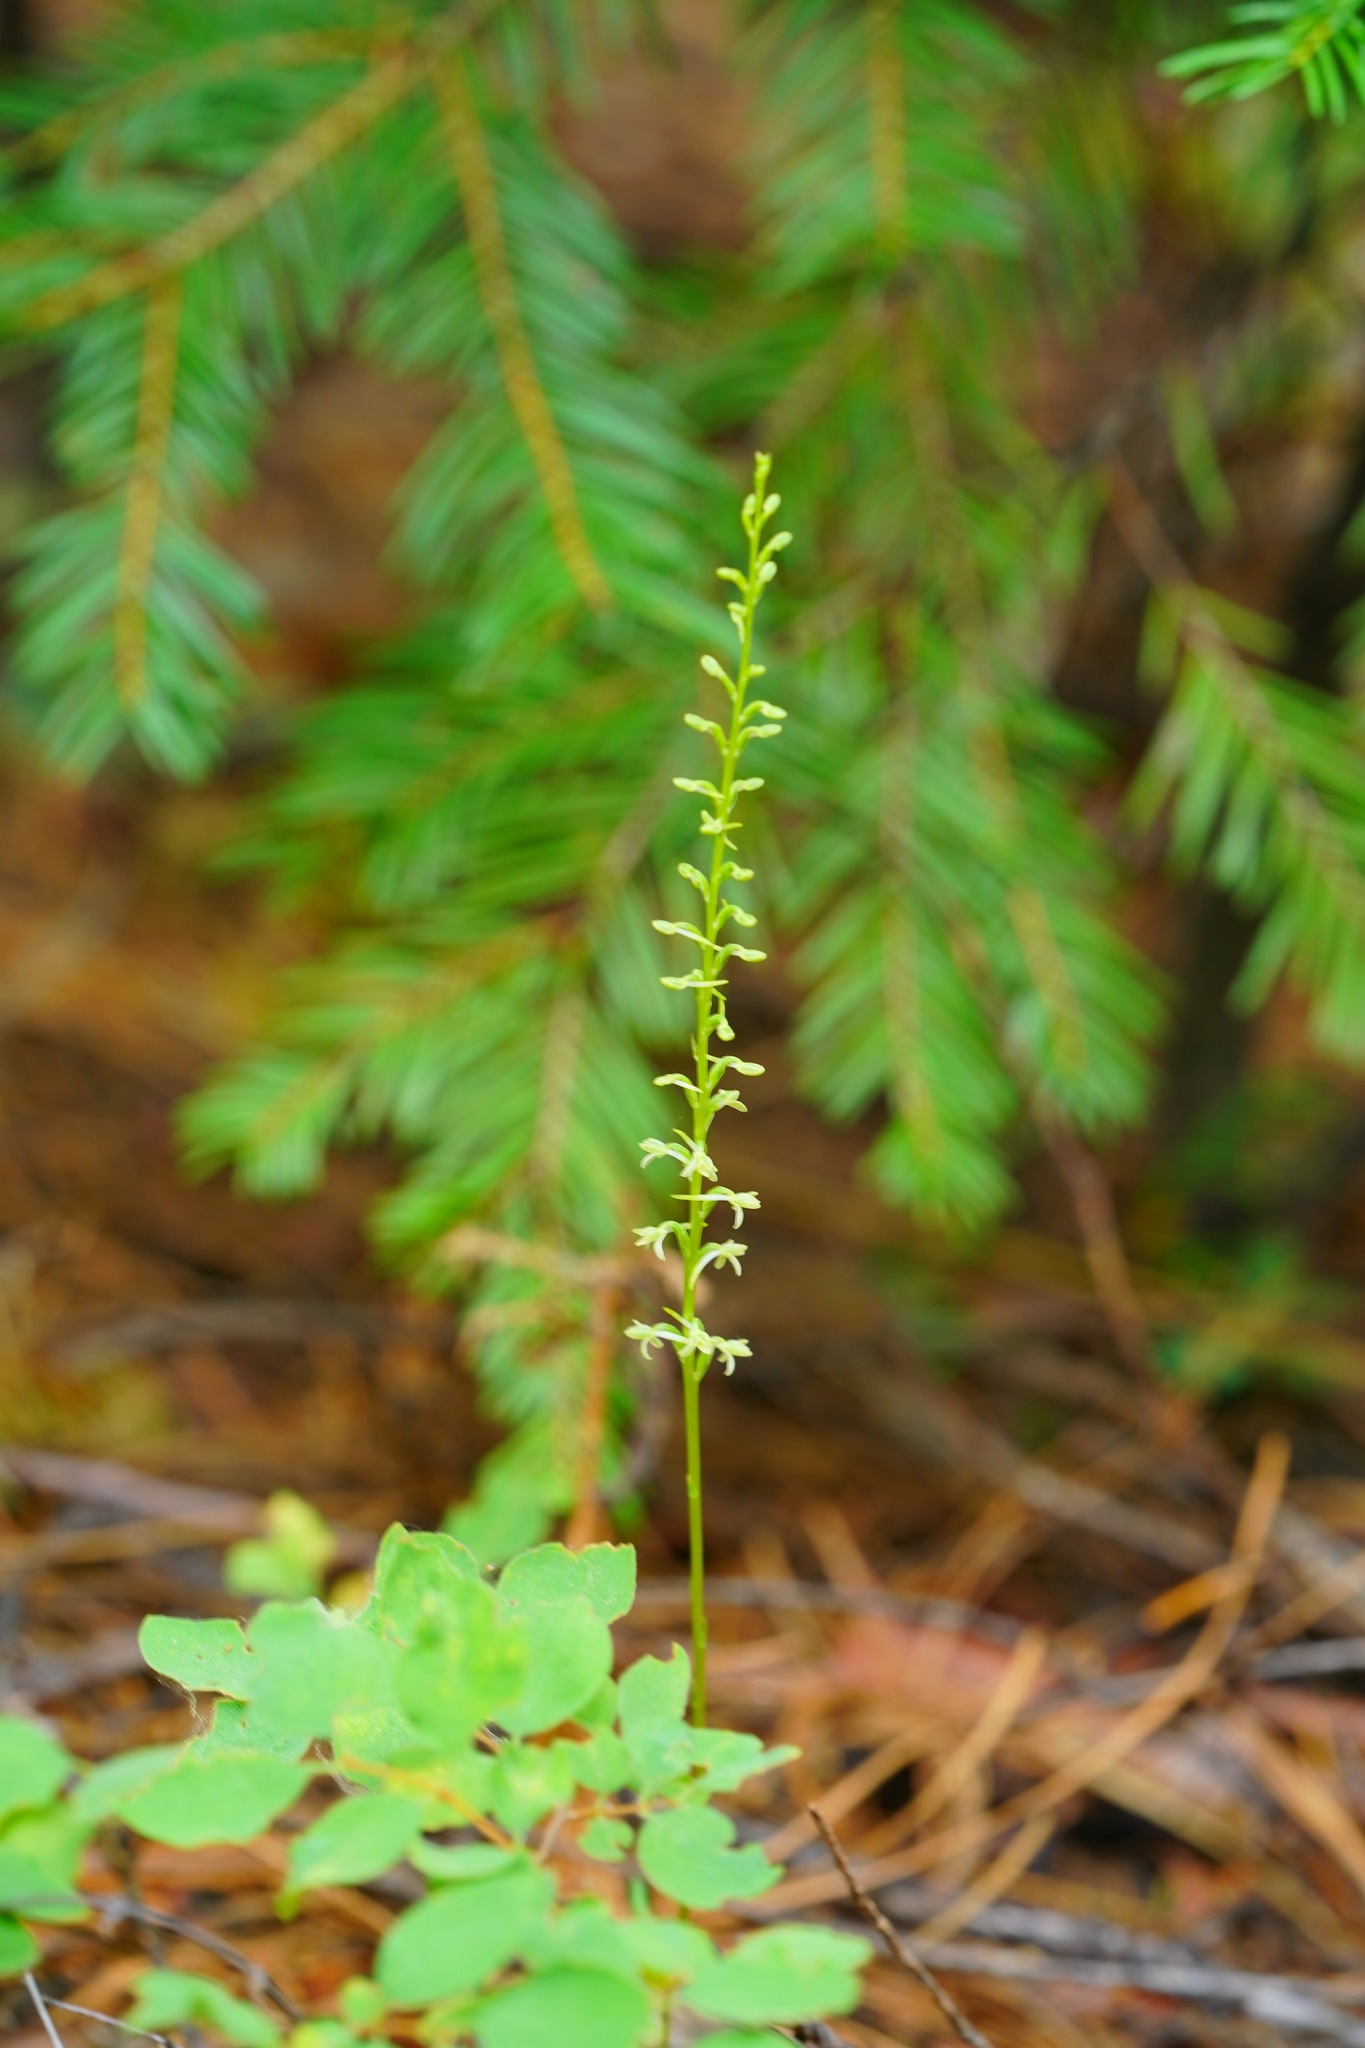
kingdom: Plantae
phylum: Tracheophyta
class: Liliopsida
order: Asparagales
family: Orchidaceae
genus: Platanthera
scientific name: Platanthera transversa
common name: Royal rein orchid
